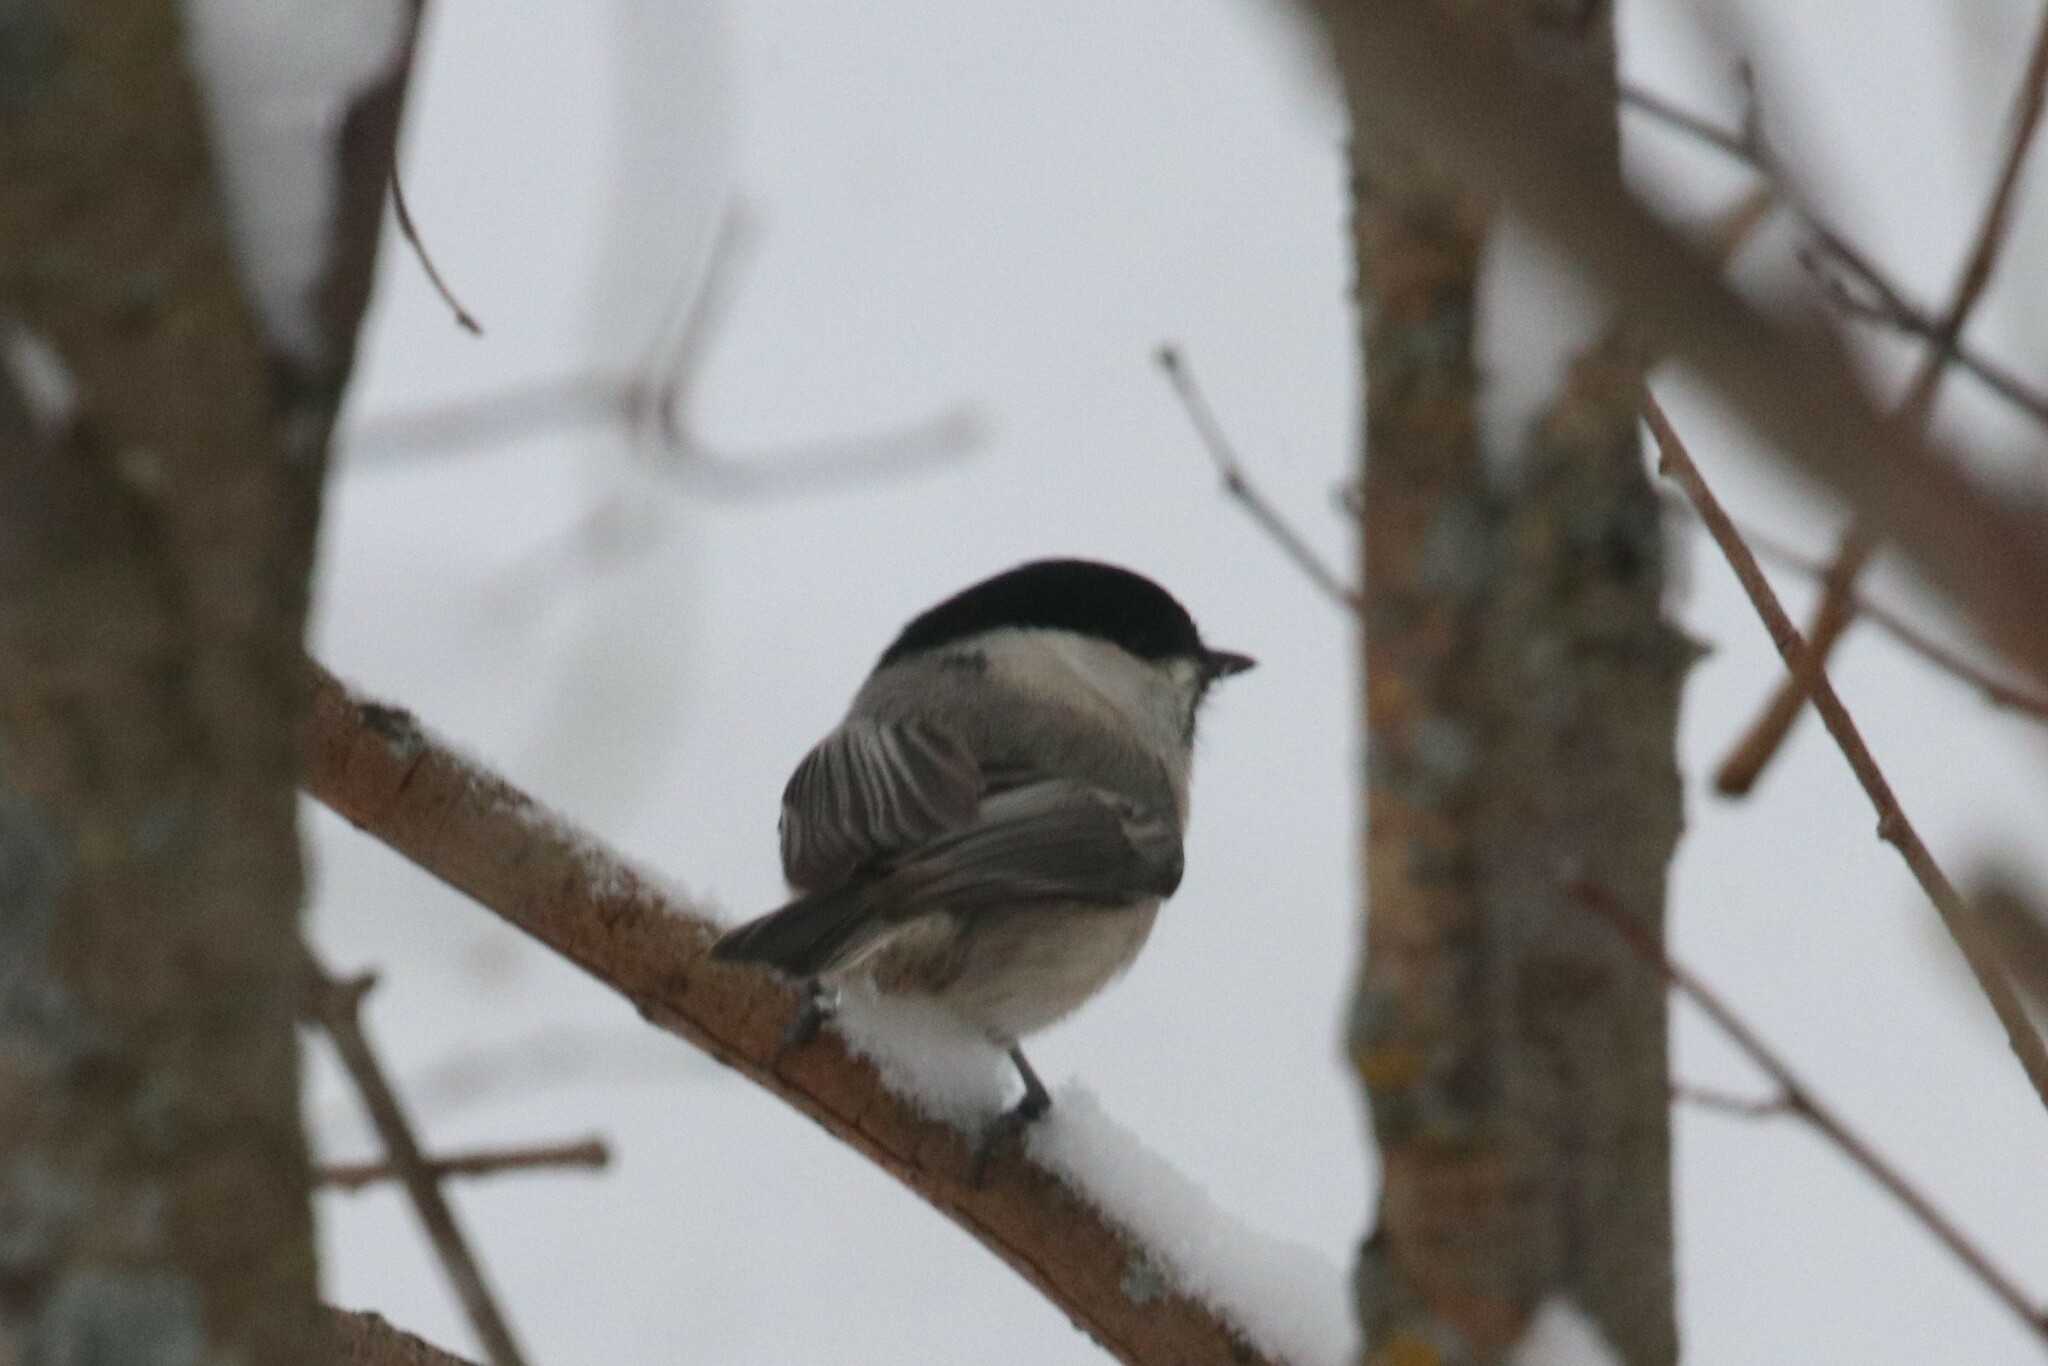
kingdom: Animalia
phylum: Chordata
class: Aves
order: Passeriformes
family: Paridae
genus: Poecile
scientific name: Poecile montanus
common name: Willow tit
